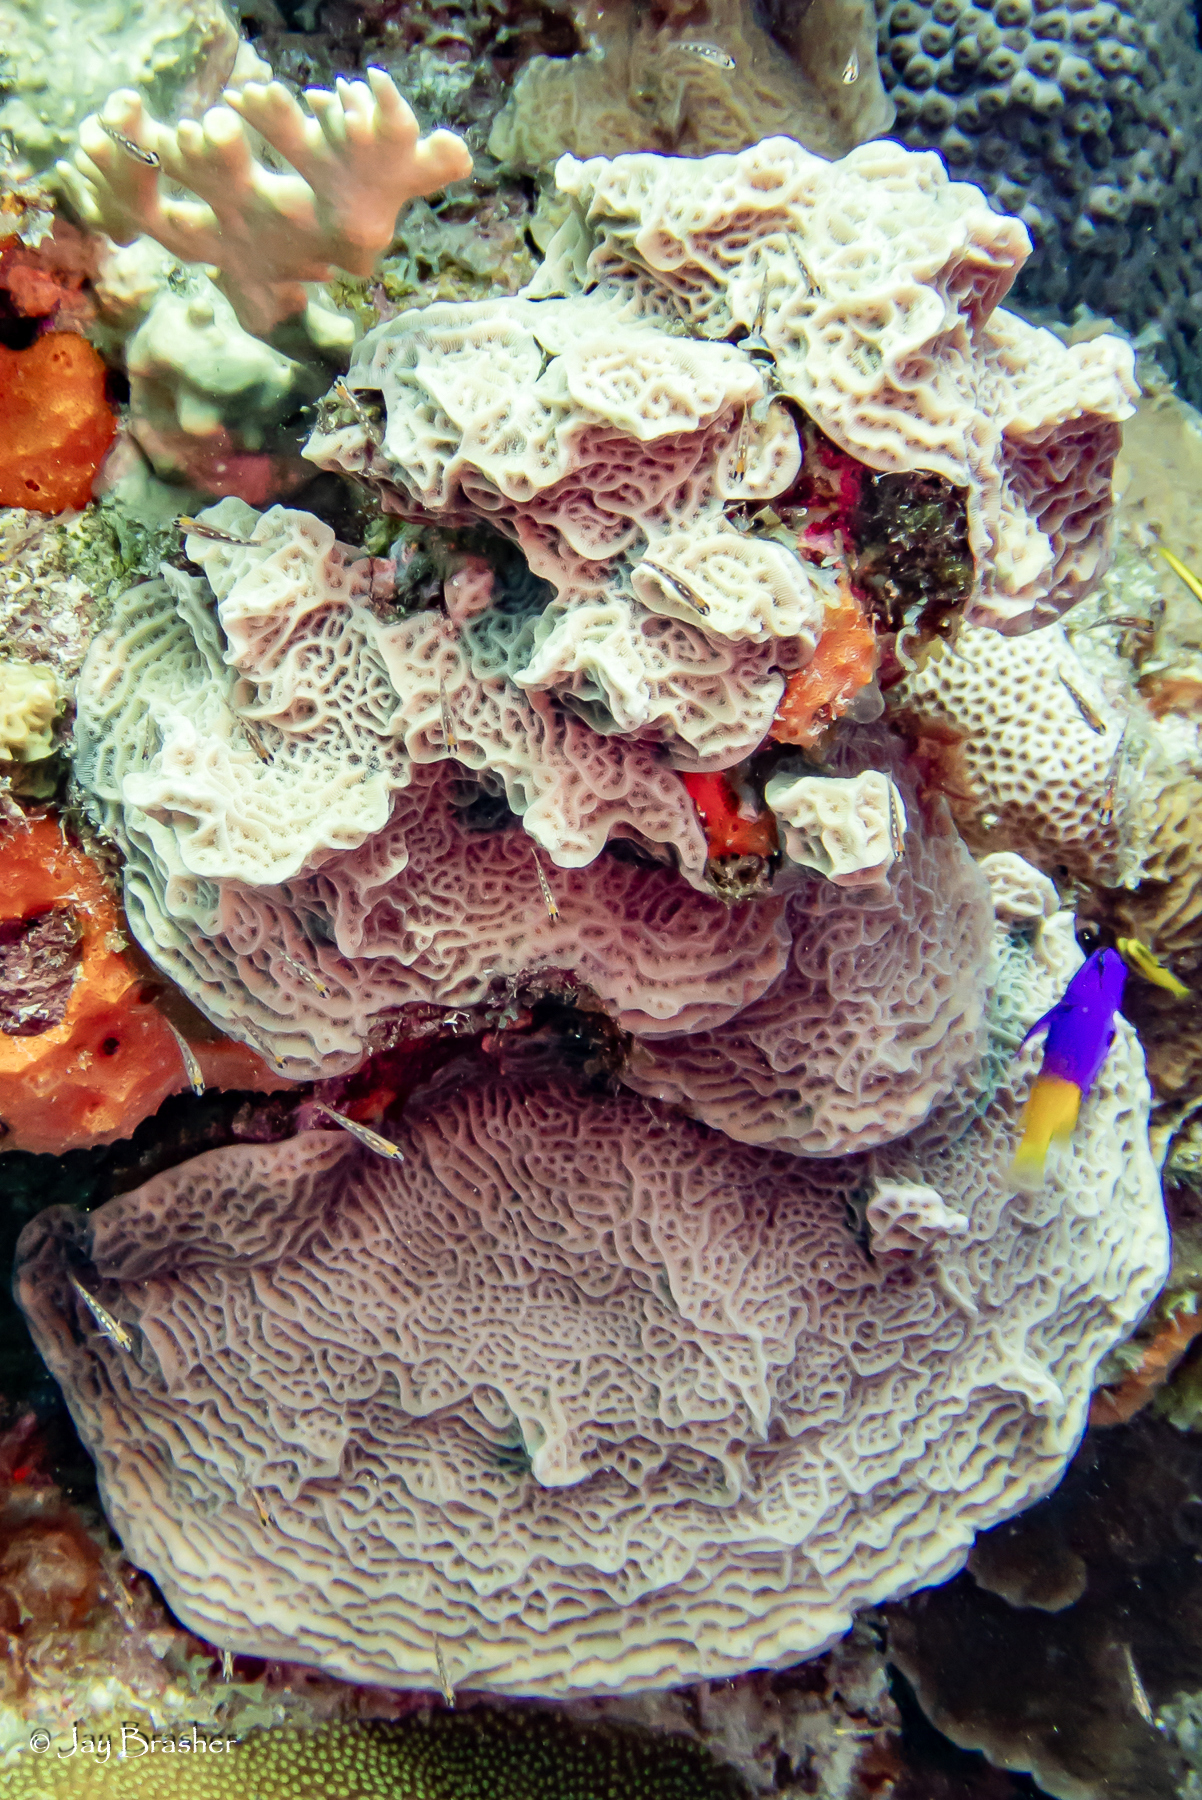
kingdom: Animalia
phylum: Chordata
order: Perciformes
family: Grammatidae
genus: Gramma
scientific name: Gramma loreto
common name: Fairy basslet
